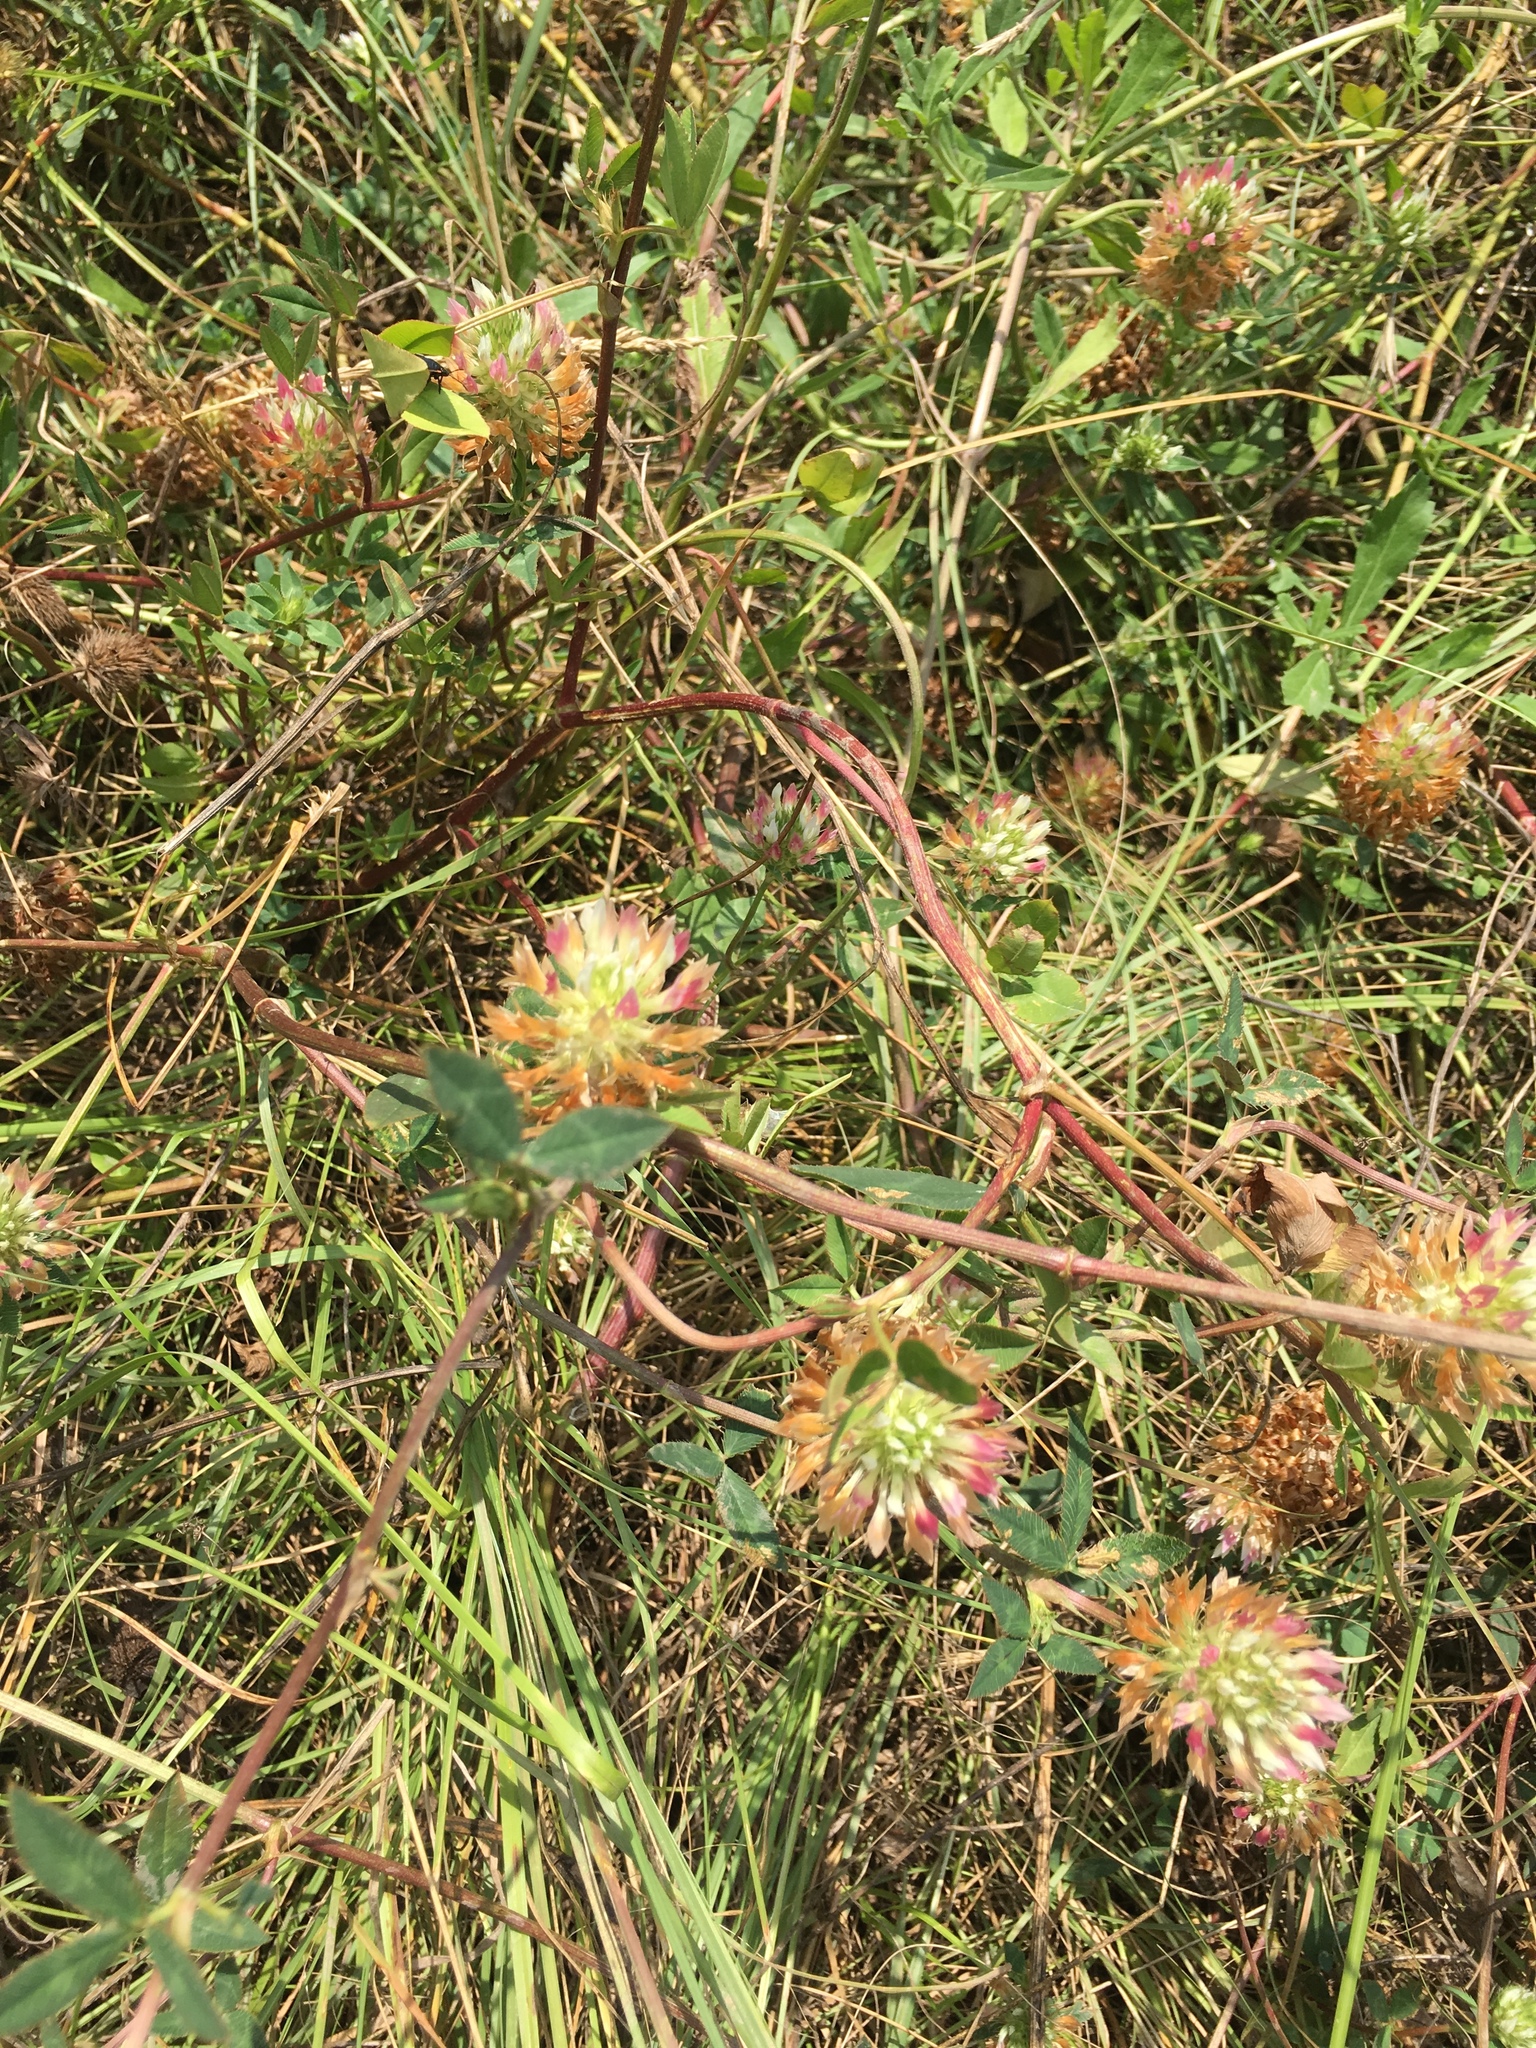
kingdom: Plantae
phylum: Tracheophyta
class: Magnoliopsida
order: Fabales
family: Fabaceae
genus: Trifolium
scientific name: Trifolium vesiculosum
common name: Arrowleaf clover
